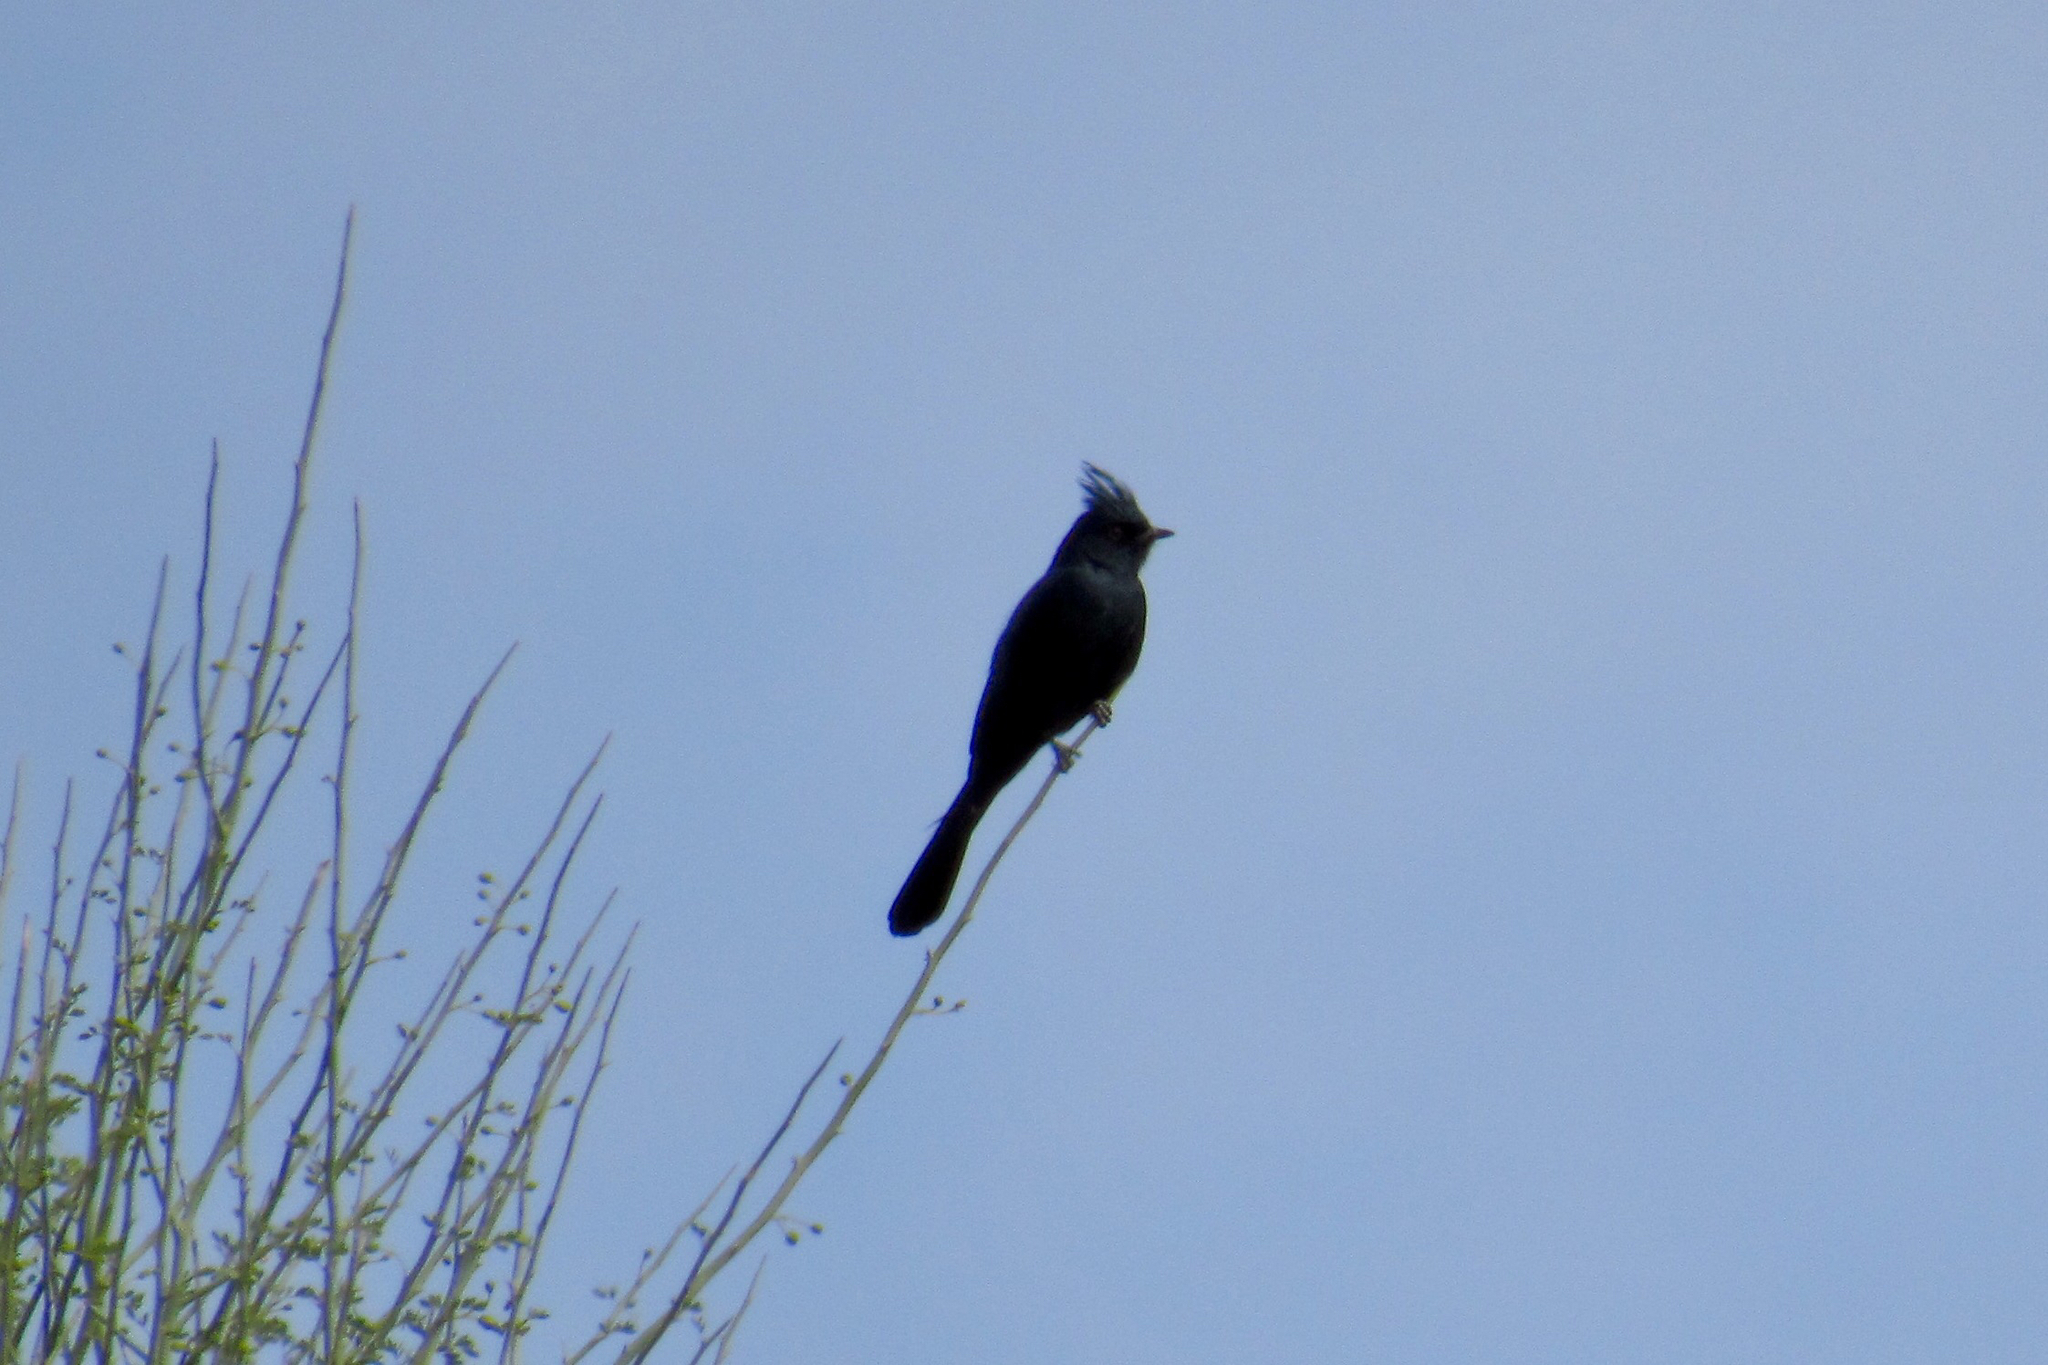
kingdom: Animalia
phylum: Chordata
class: Aves
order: Passeriformes
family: Ptilogonatidae
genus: Phainopepla
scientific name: Phainopepla nitens
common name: Phainopepla
